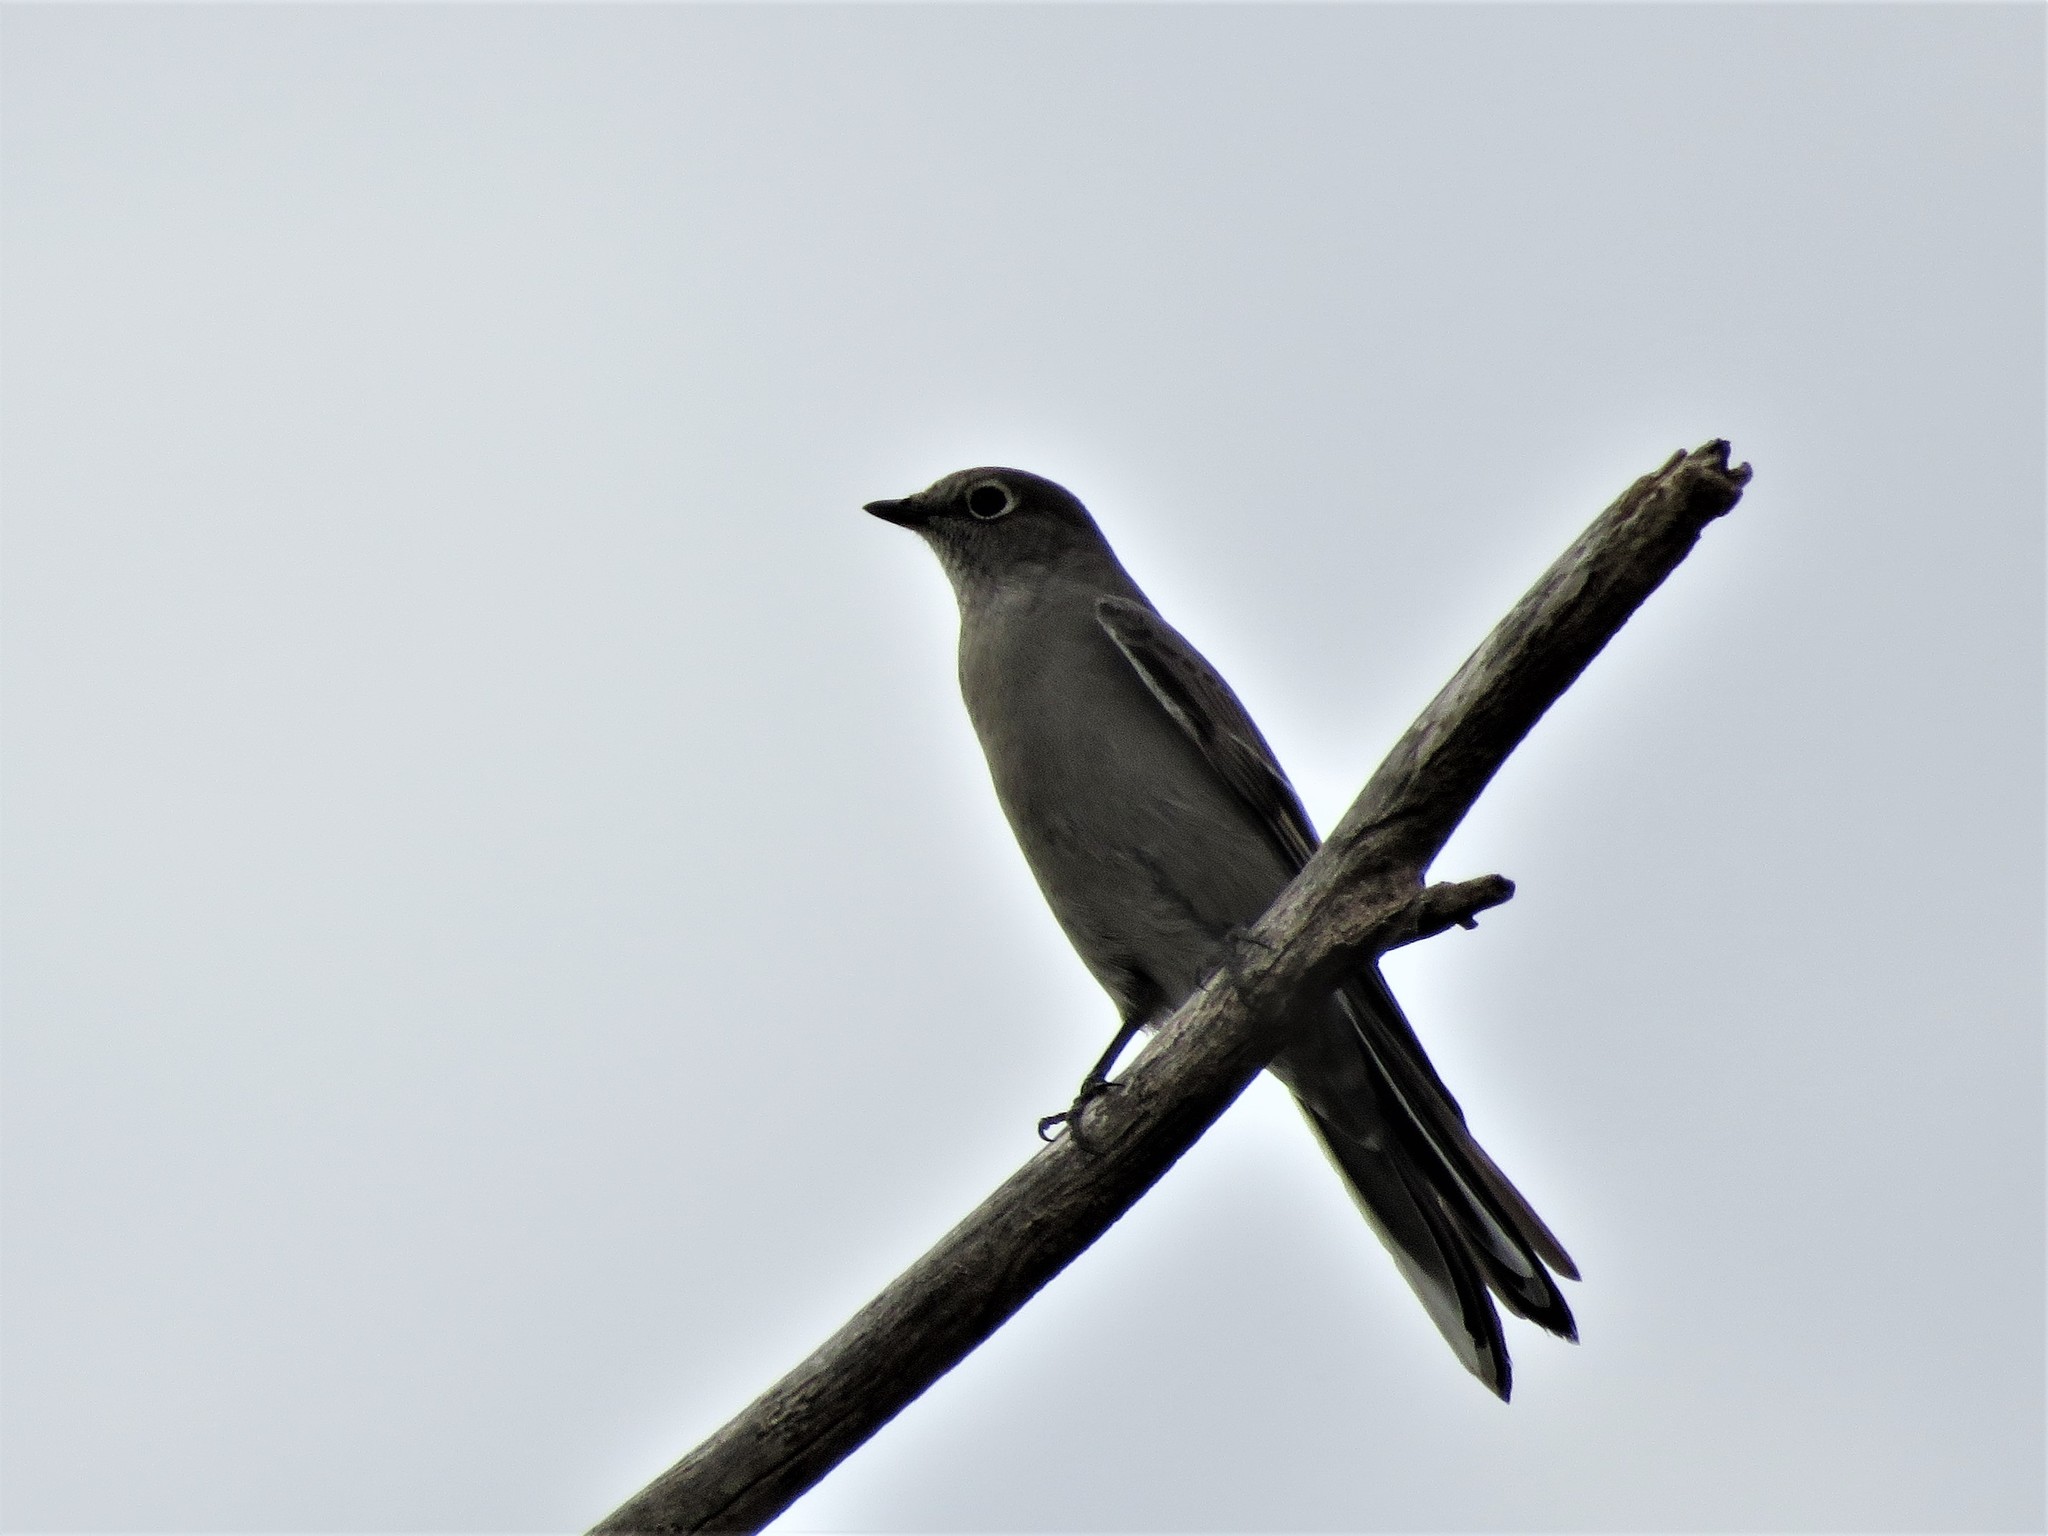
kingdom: Animalia
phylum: Chordata
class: Aves
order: Passeriformes
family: Turdidae
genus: Myadestes
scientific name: Myadestes townsendi
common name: Townsend's solitaire
